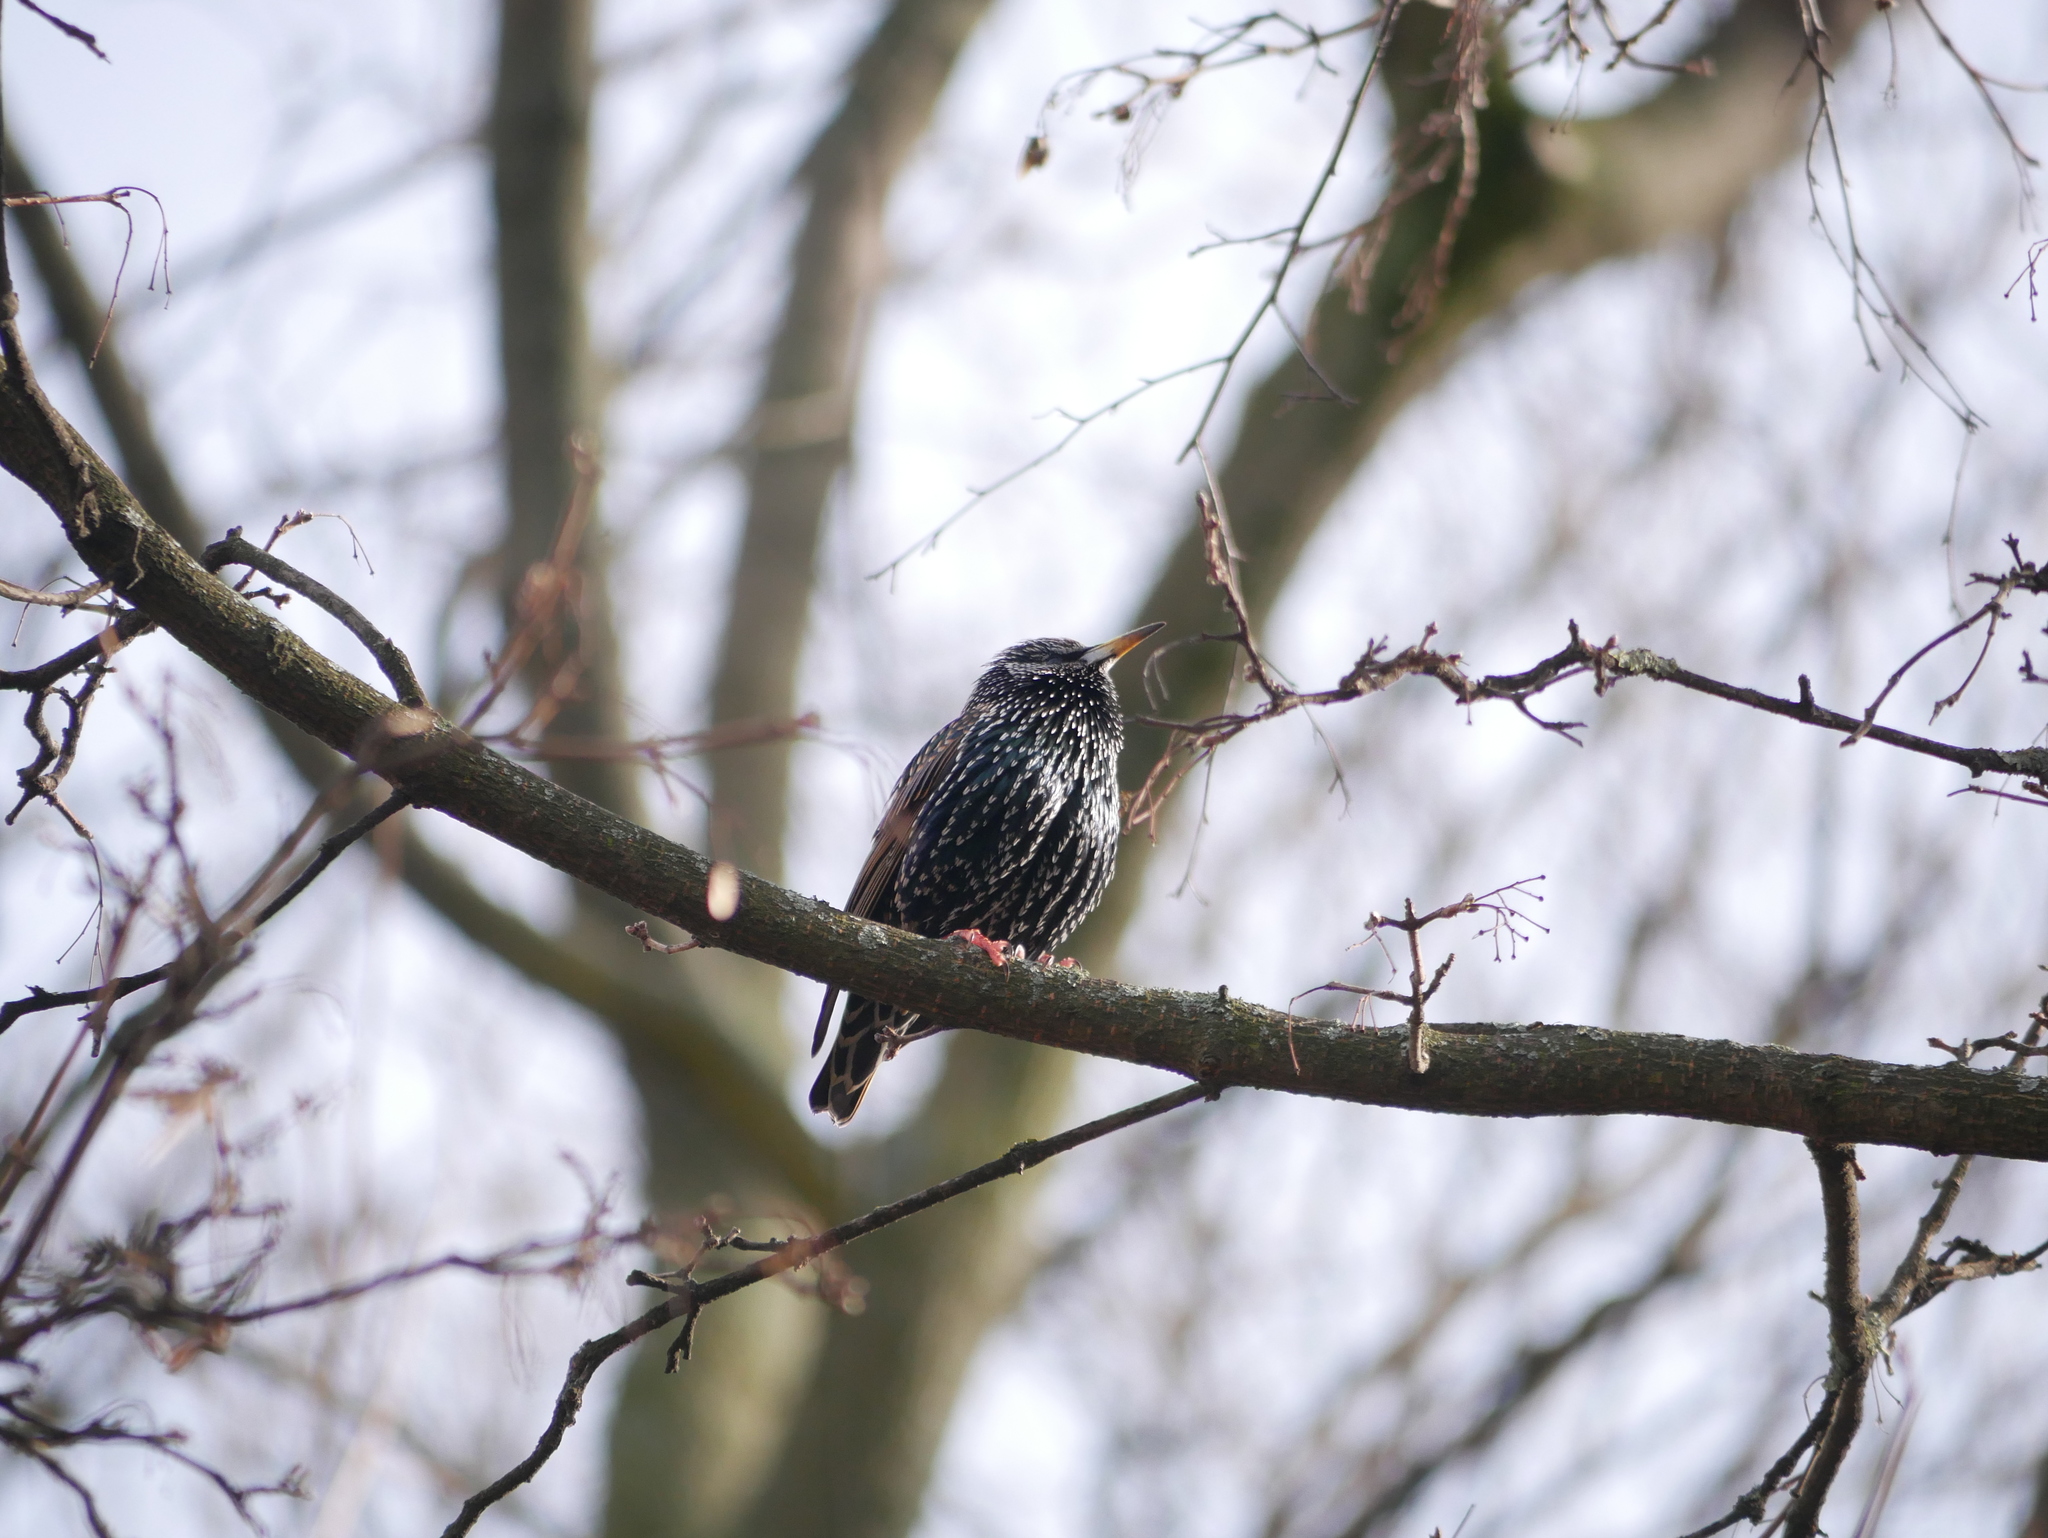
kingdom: Animalia
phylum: Chordata
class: Aves
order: Passeriformes
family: Sturnidae
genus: Sturnus
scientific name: Sturnus vulgaris
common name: Common starling
